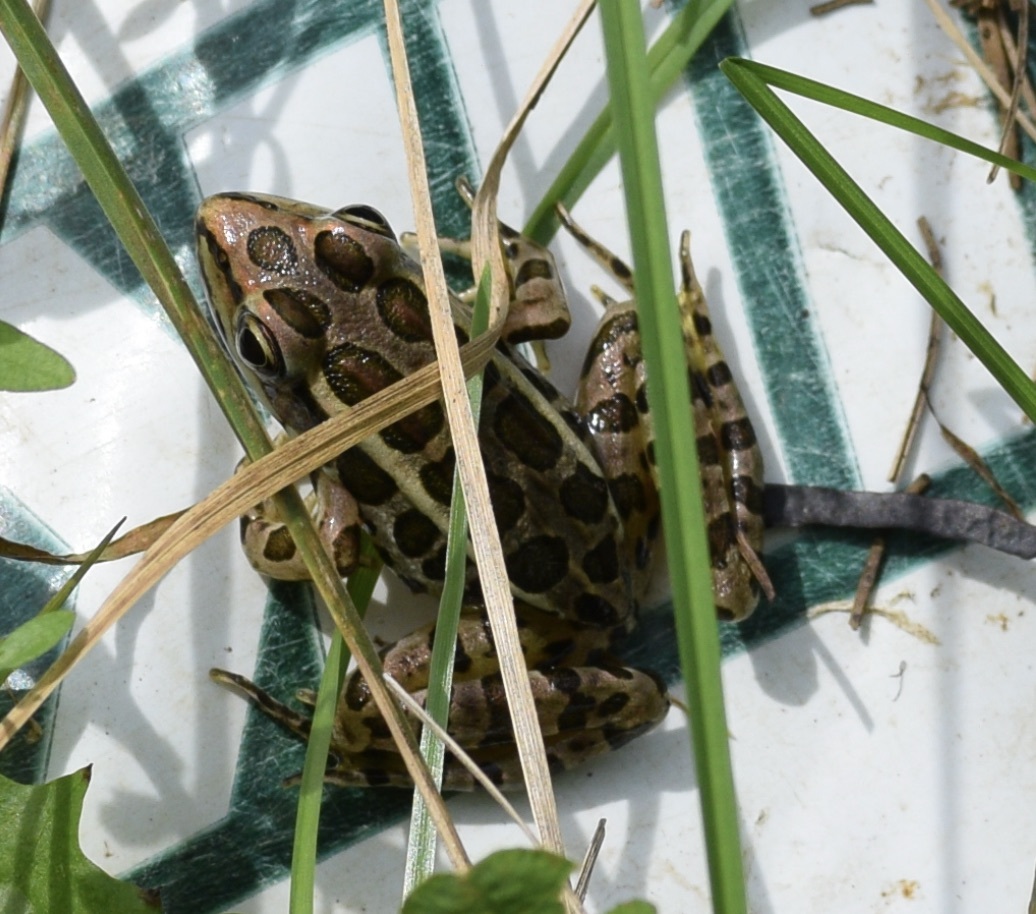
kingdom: Animalia
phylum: Chordata
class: Amphibia
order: Anura
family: Ranidae
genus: Lithobates
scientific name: Lithobates palustris
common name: Pickerel frog
